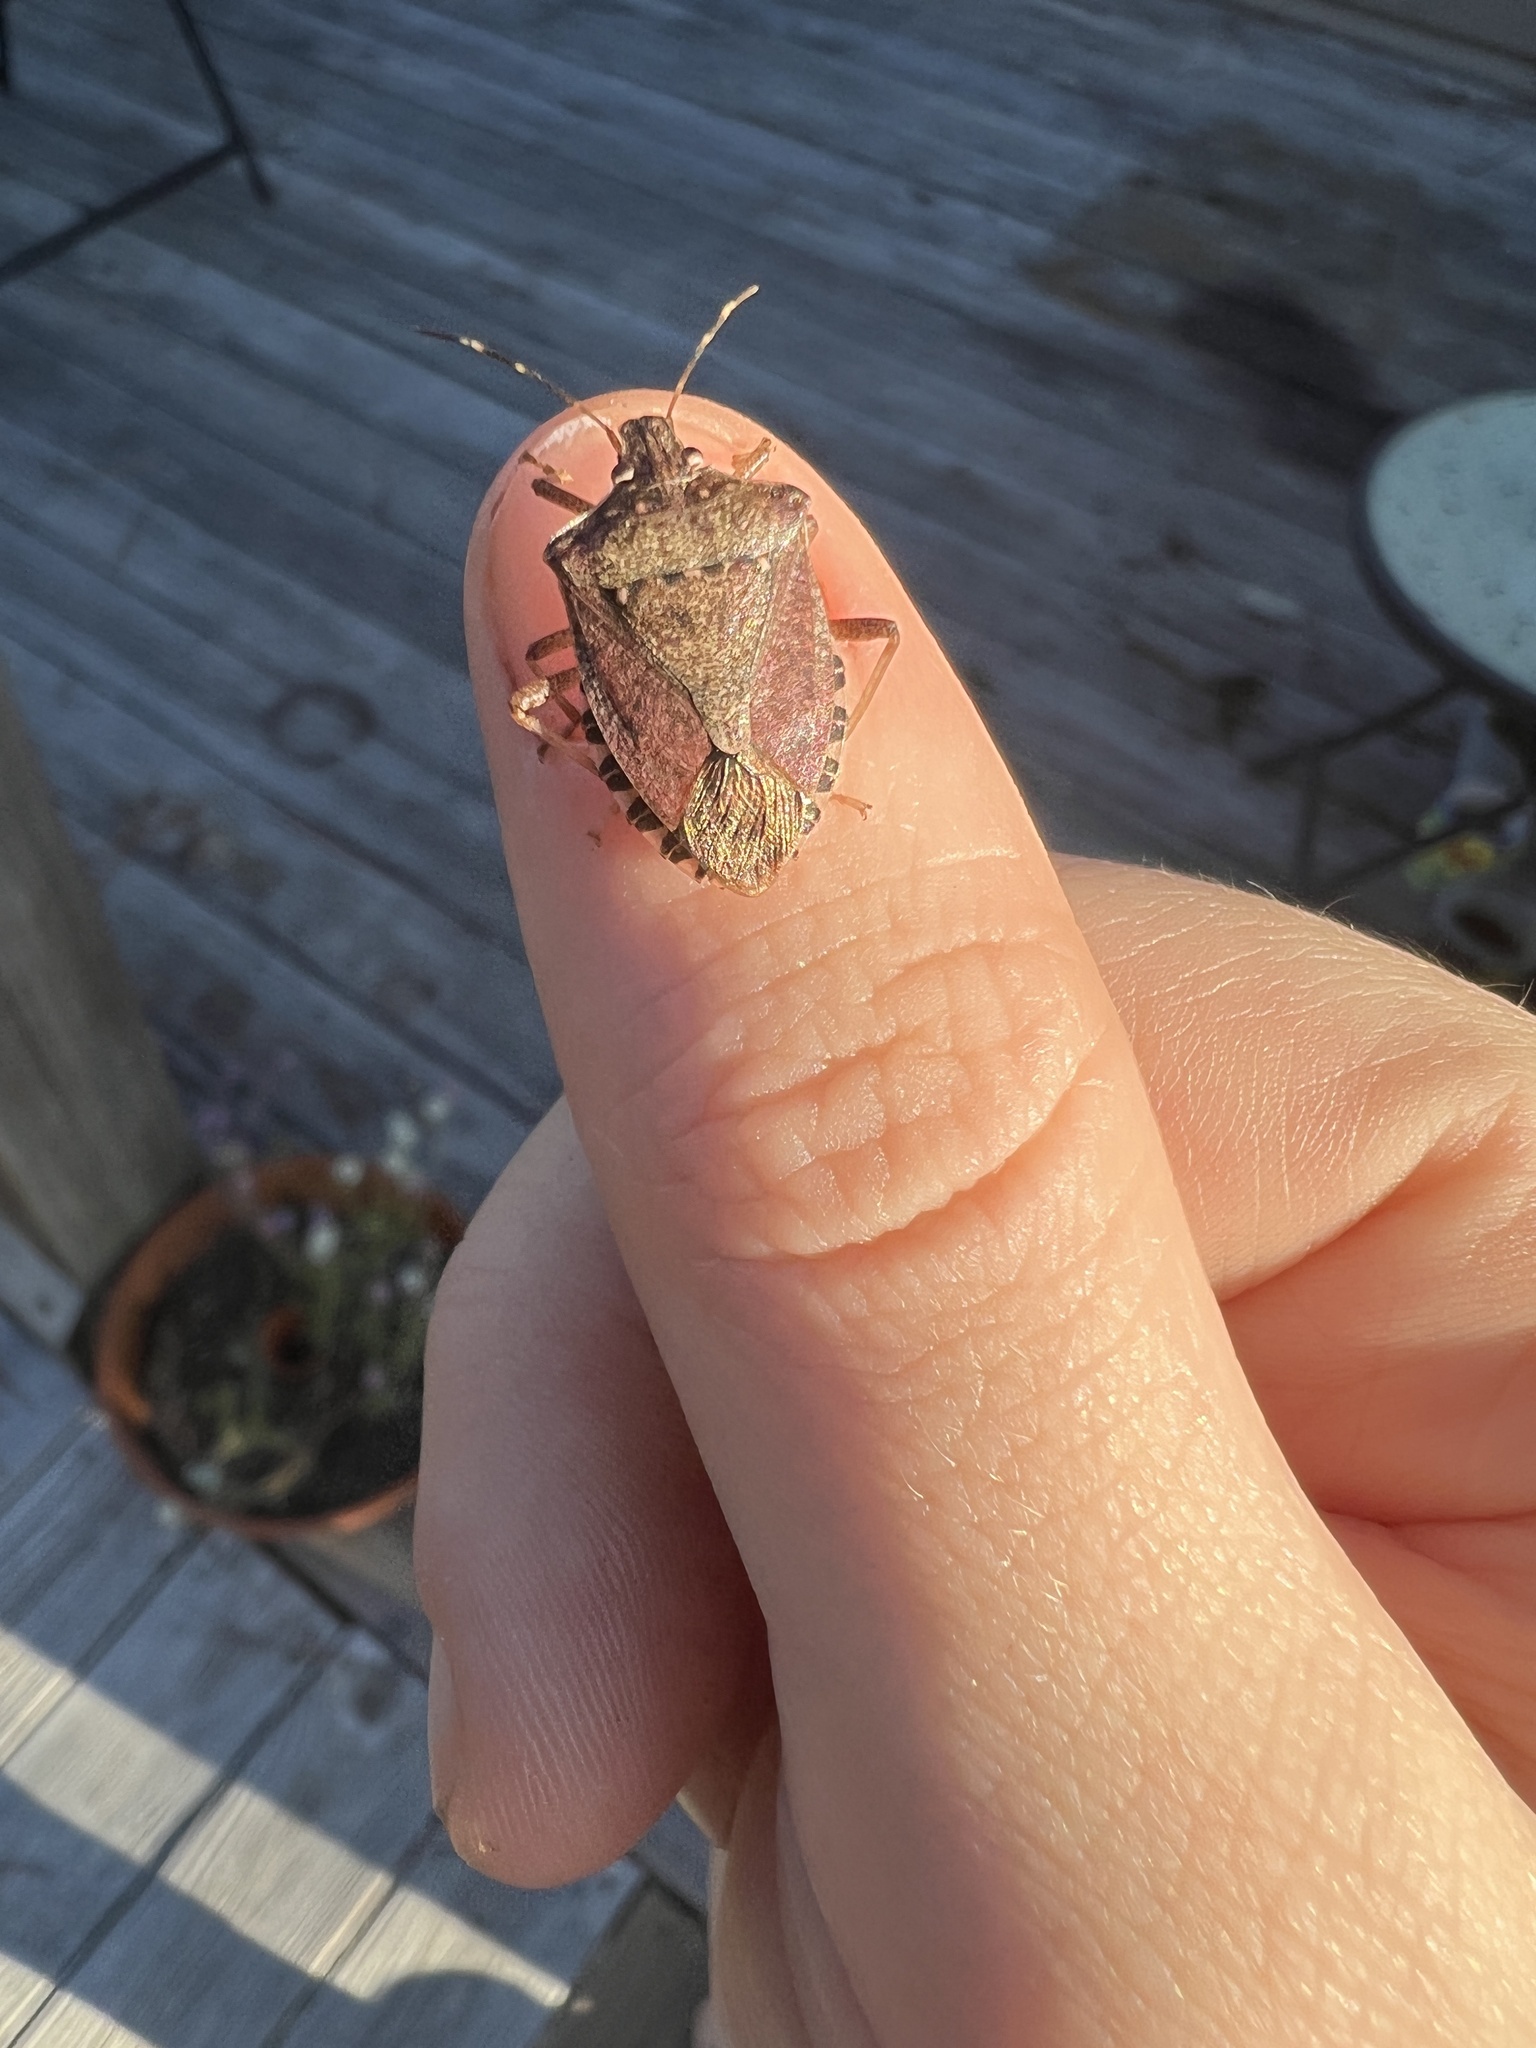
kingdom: Animalia
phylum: Arthropoda
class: Insecta
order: Hemiptera
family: Pentatomidae
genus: Halyomorpha
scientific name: Halyomorpha halys
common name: Brown marmorated stink bug
